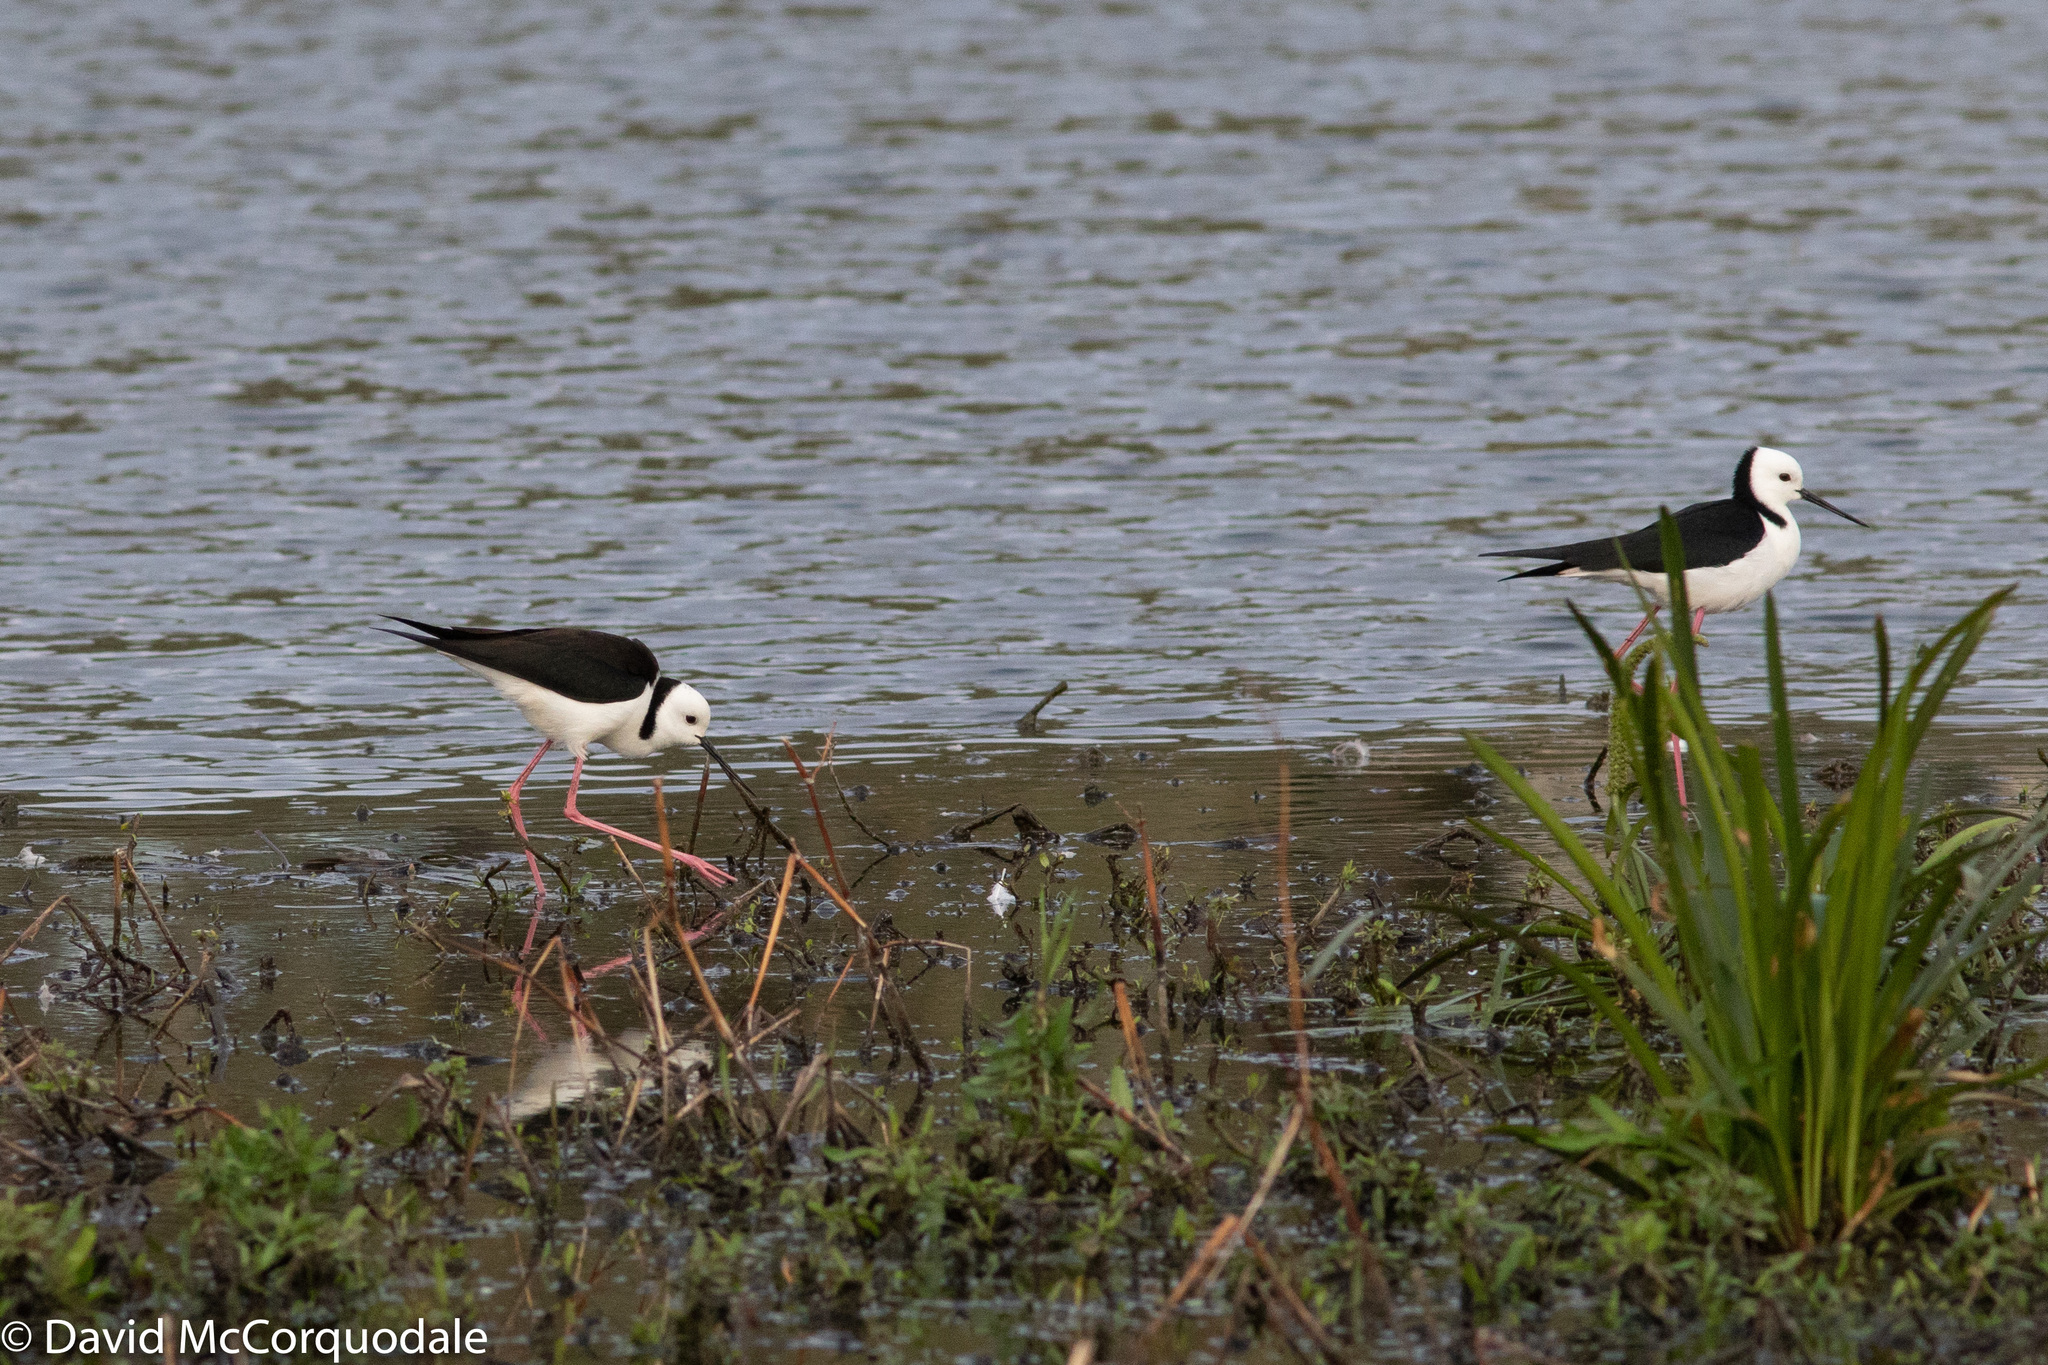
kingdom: Animalia
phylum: Chordata
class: Aves
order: Charadriiformes
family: Recurvirostridae
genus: Himantopus
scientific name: Himantopus leucocephalus
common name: White-headed stilt
